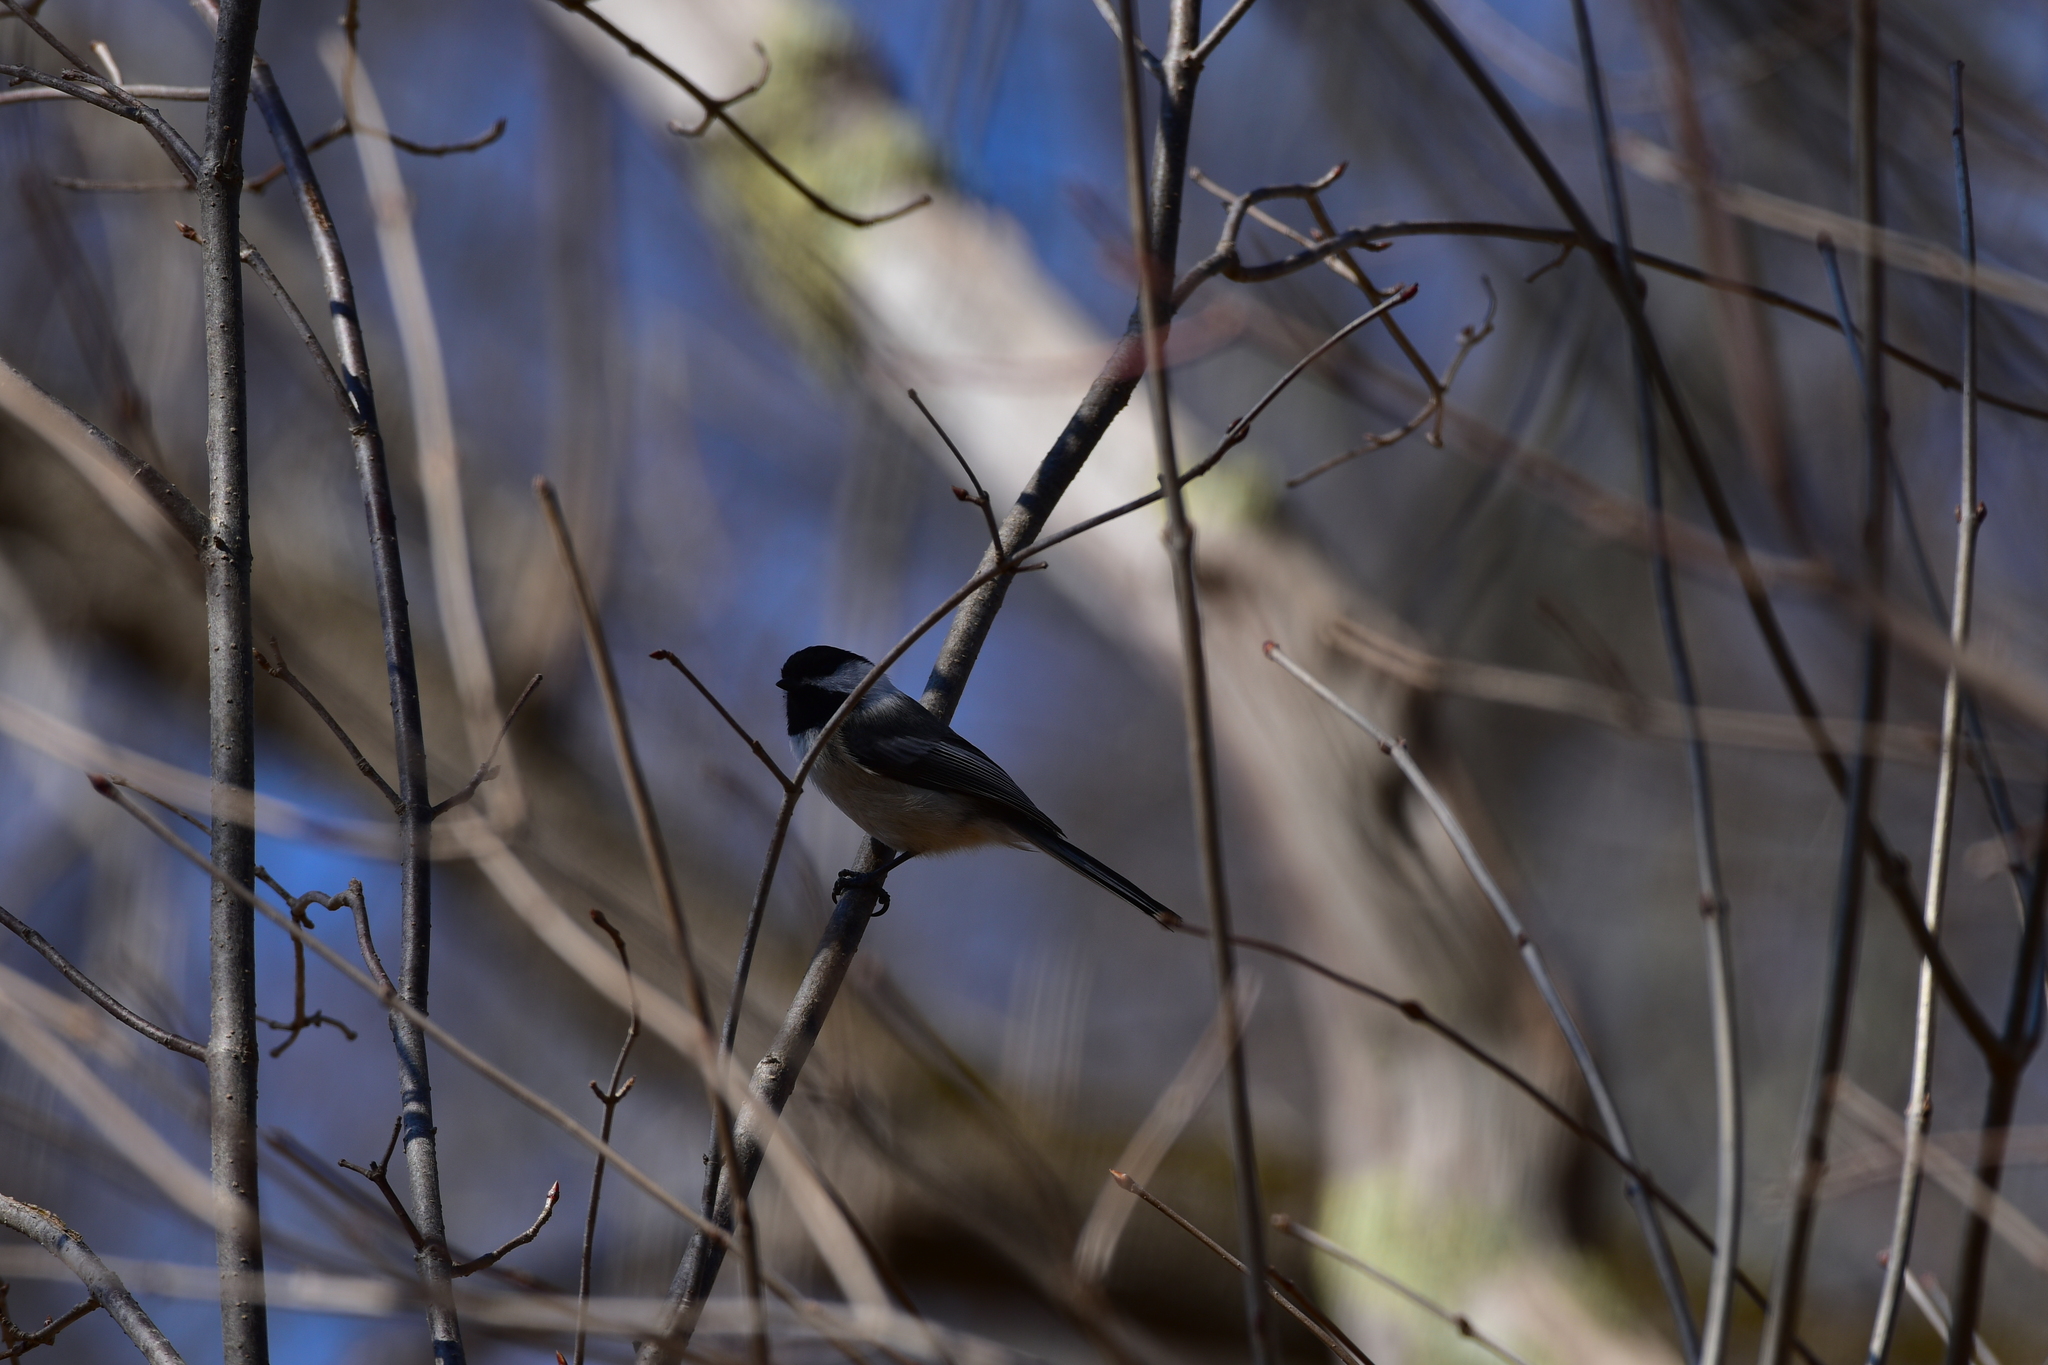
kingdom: Animalia
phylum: Chordata
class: Aves
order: Passeriformes
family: Paridae
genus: Poecile
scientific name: Poecile atricapillus
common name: Black-capped chickadee
